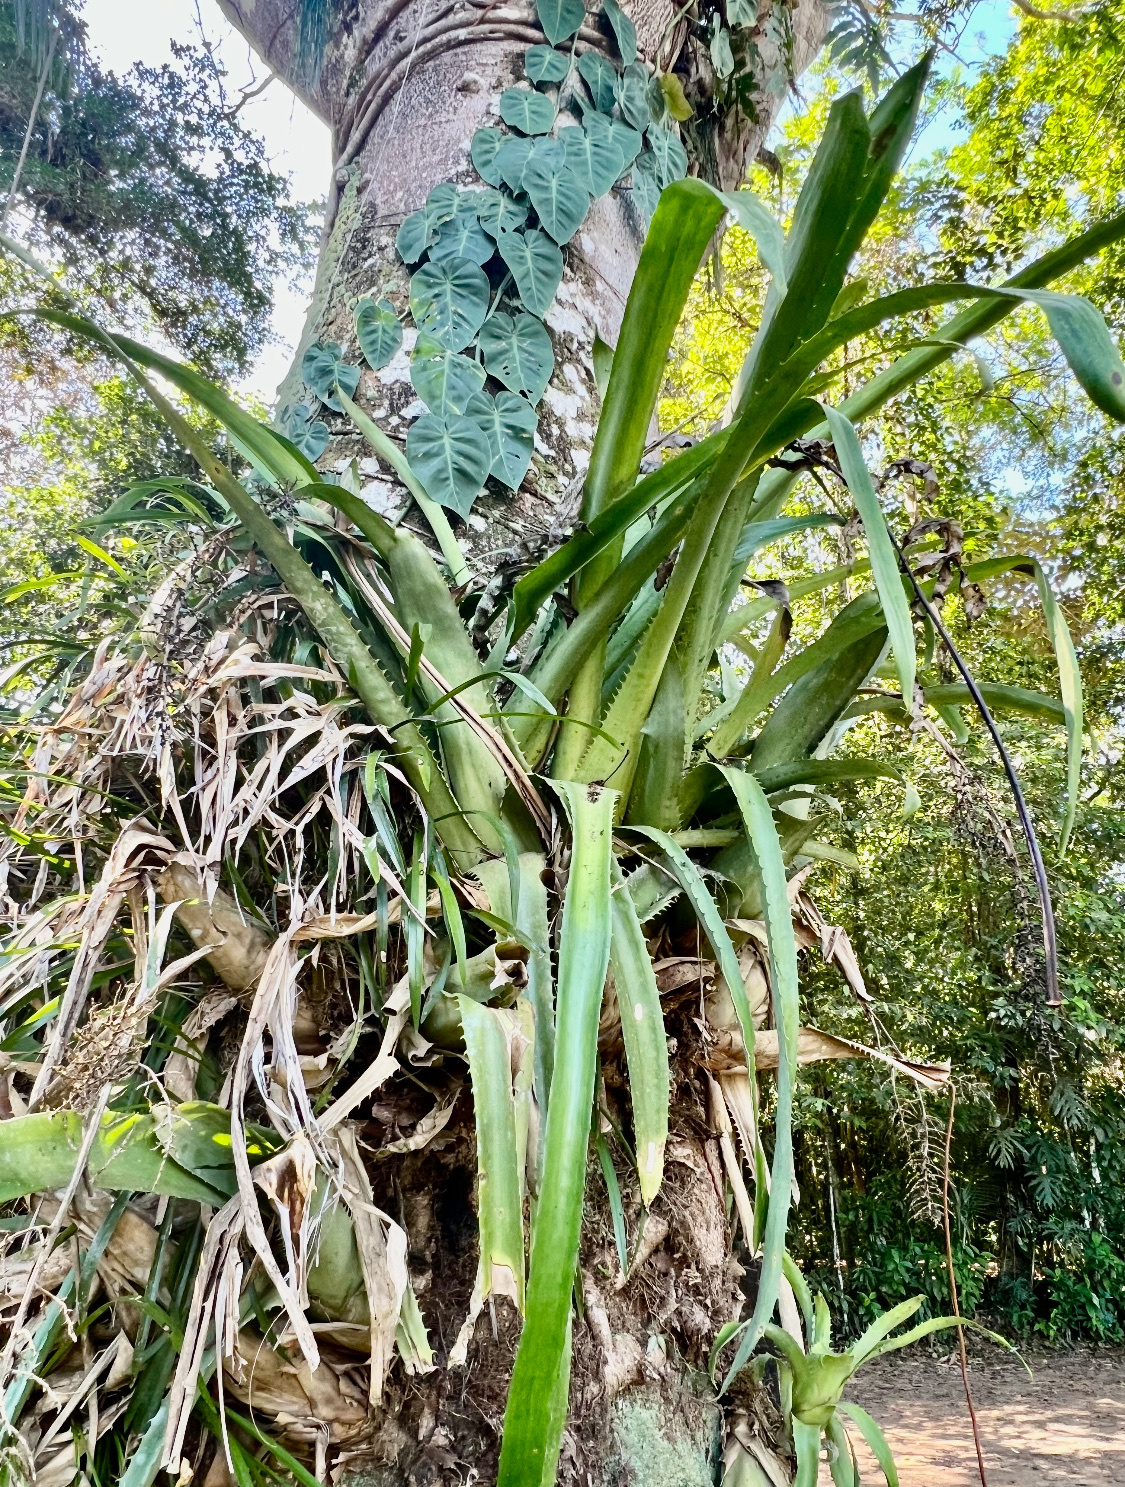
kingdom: Plantae
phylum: Tracheophyta
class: Liliopsida
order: Poales
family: Bromeliaceae
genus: Aechmea
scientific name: Aechmea bracteata
